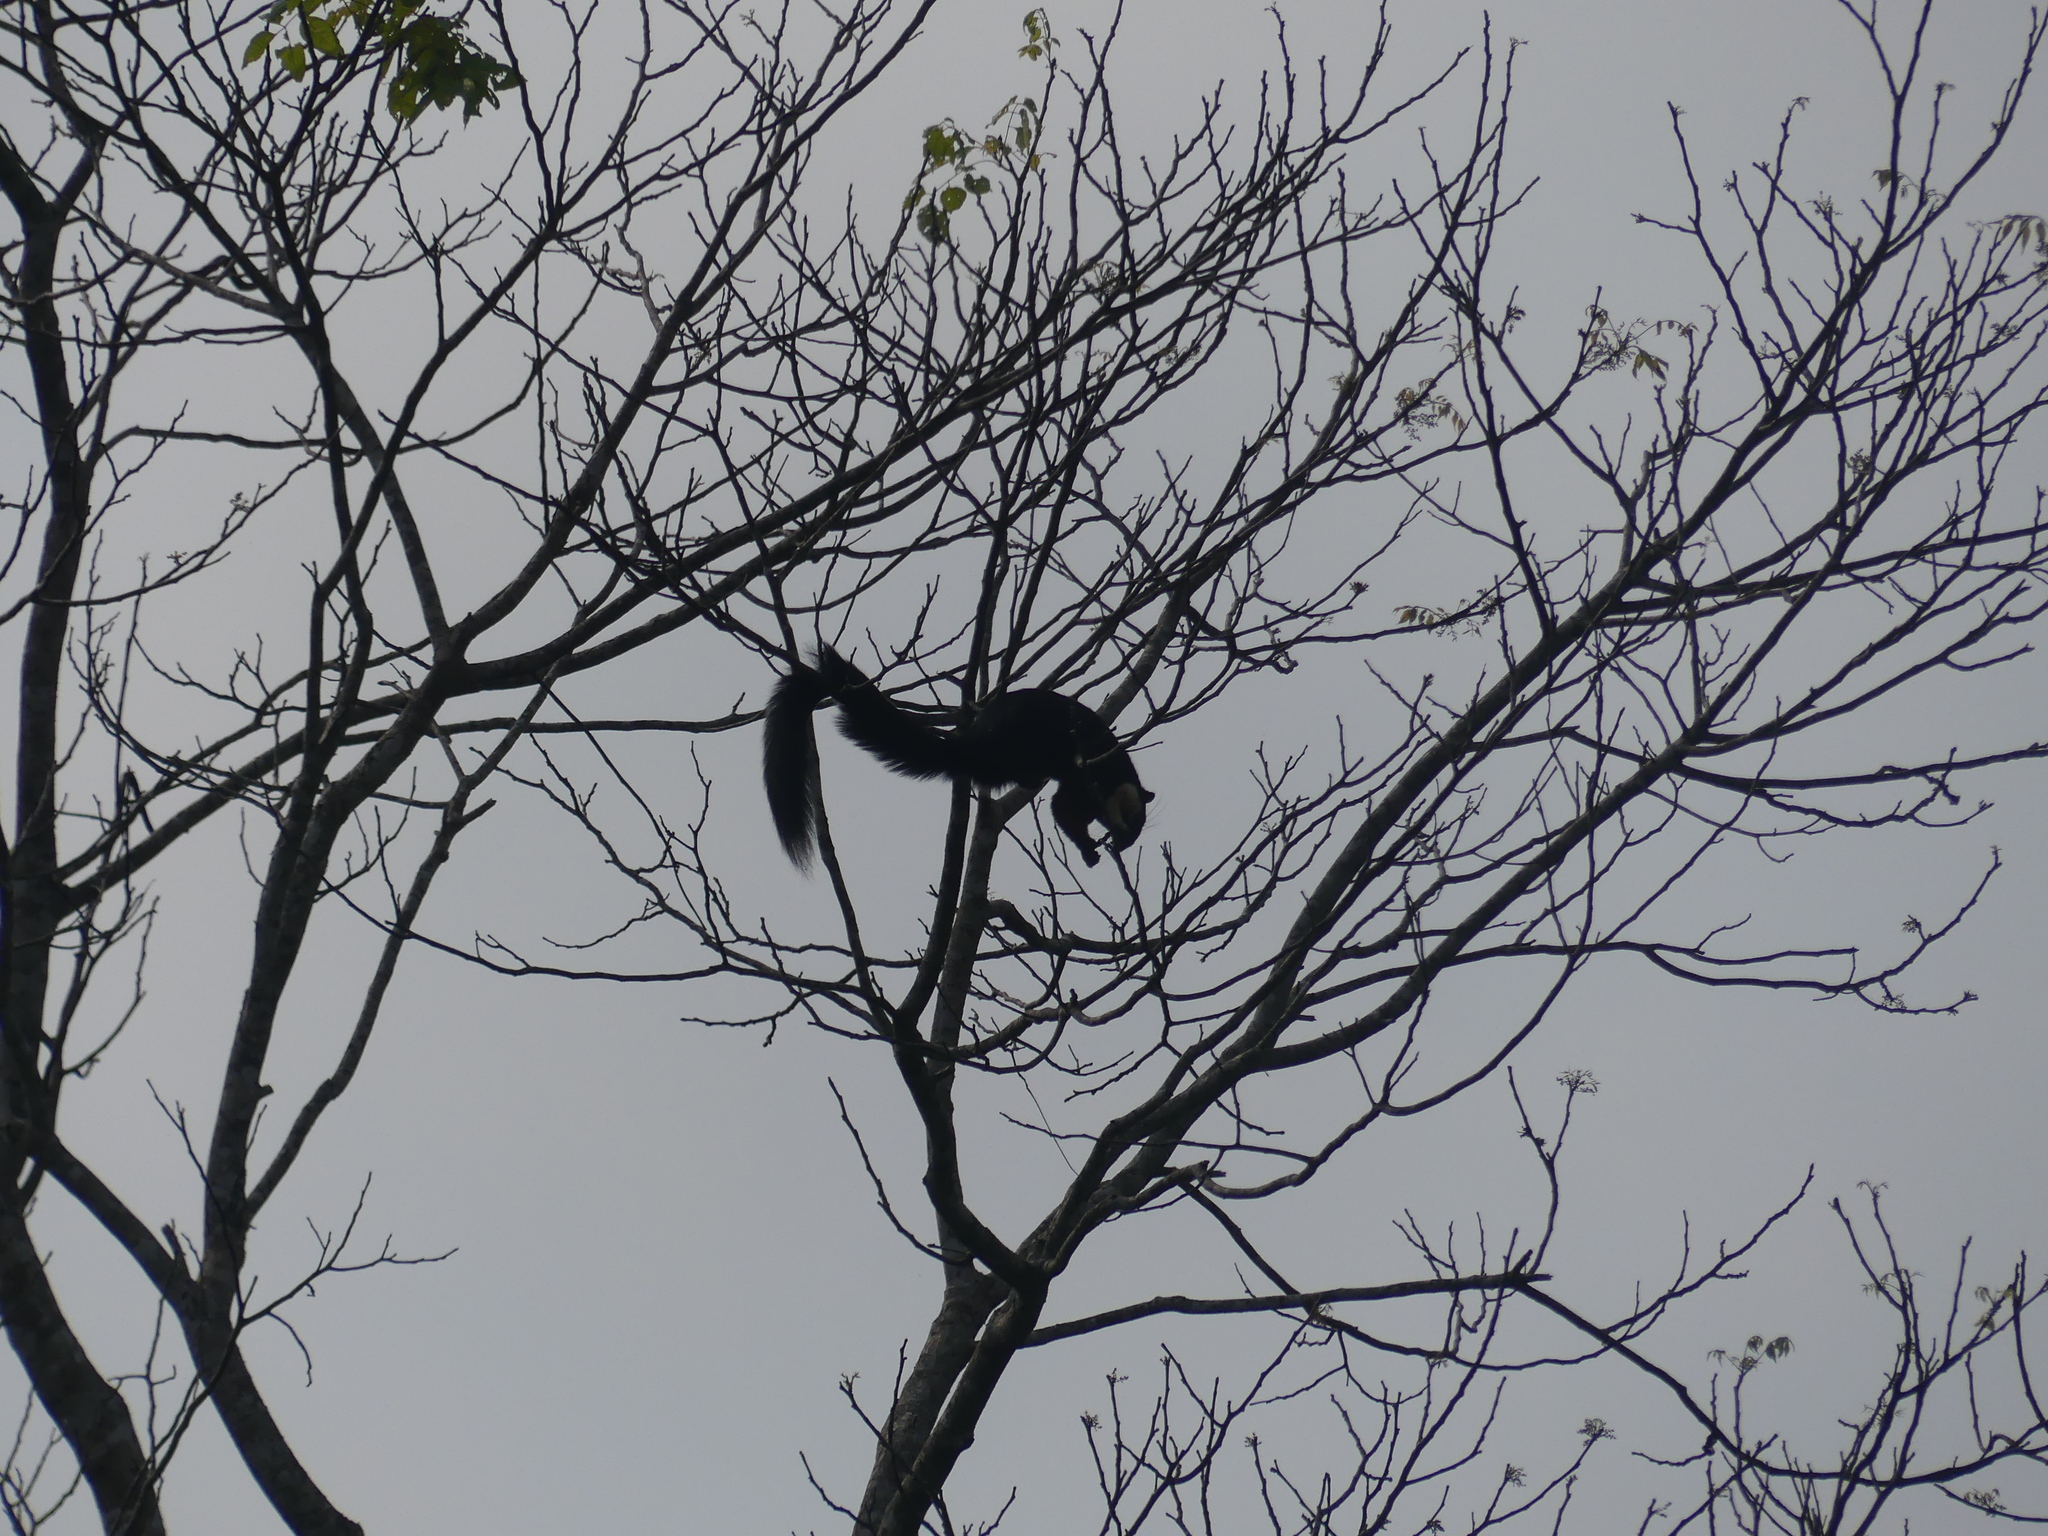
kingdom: Animalia
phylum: Chordata
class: Mammalia
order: Rodentia
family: Sciuridae
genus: Ratufa
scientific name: Ratufa bicolor
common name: Black giant squirrel
